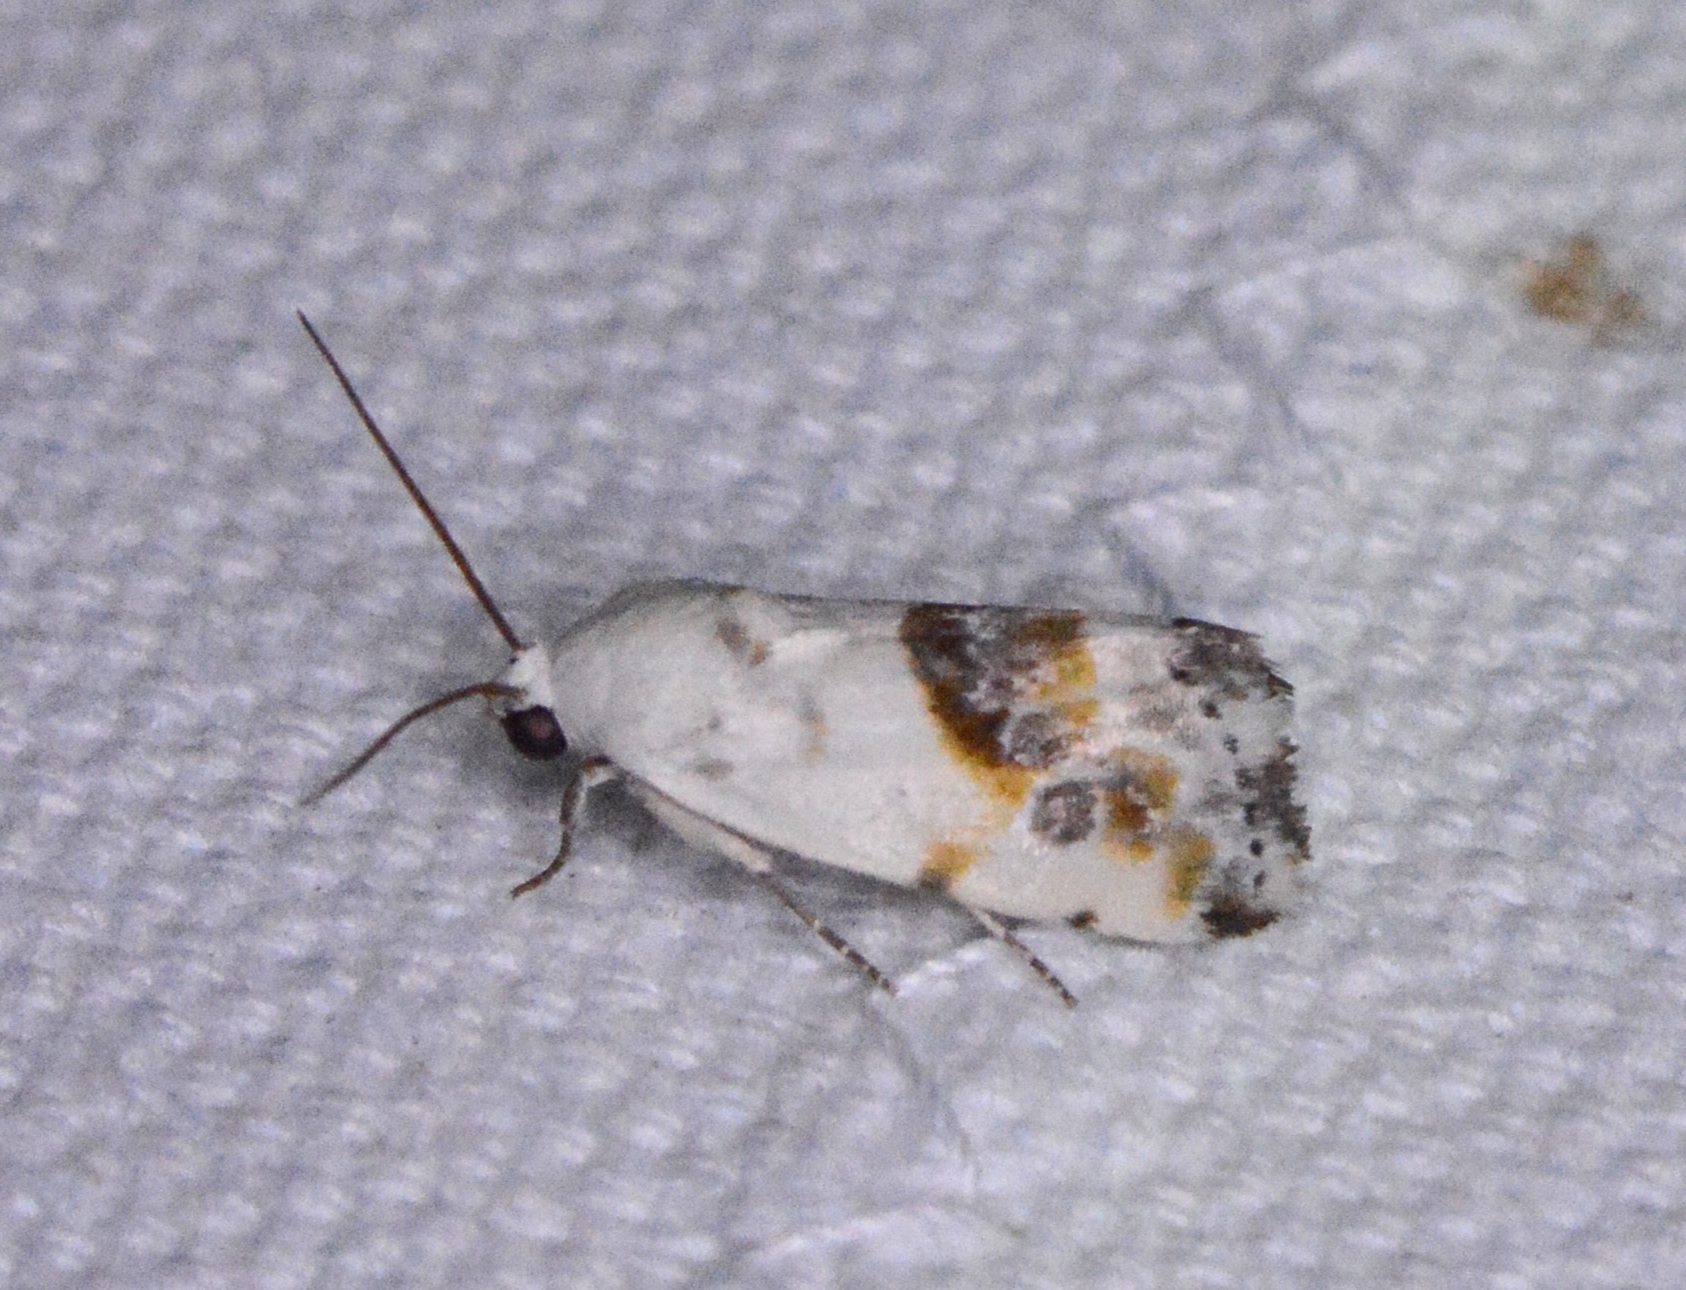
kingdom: Animalia
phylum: Arthropoda
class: Insecta
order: Lepidoptera
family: Noctuidae
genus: Acontia
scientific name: Acontia candefacta
